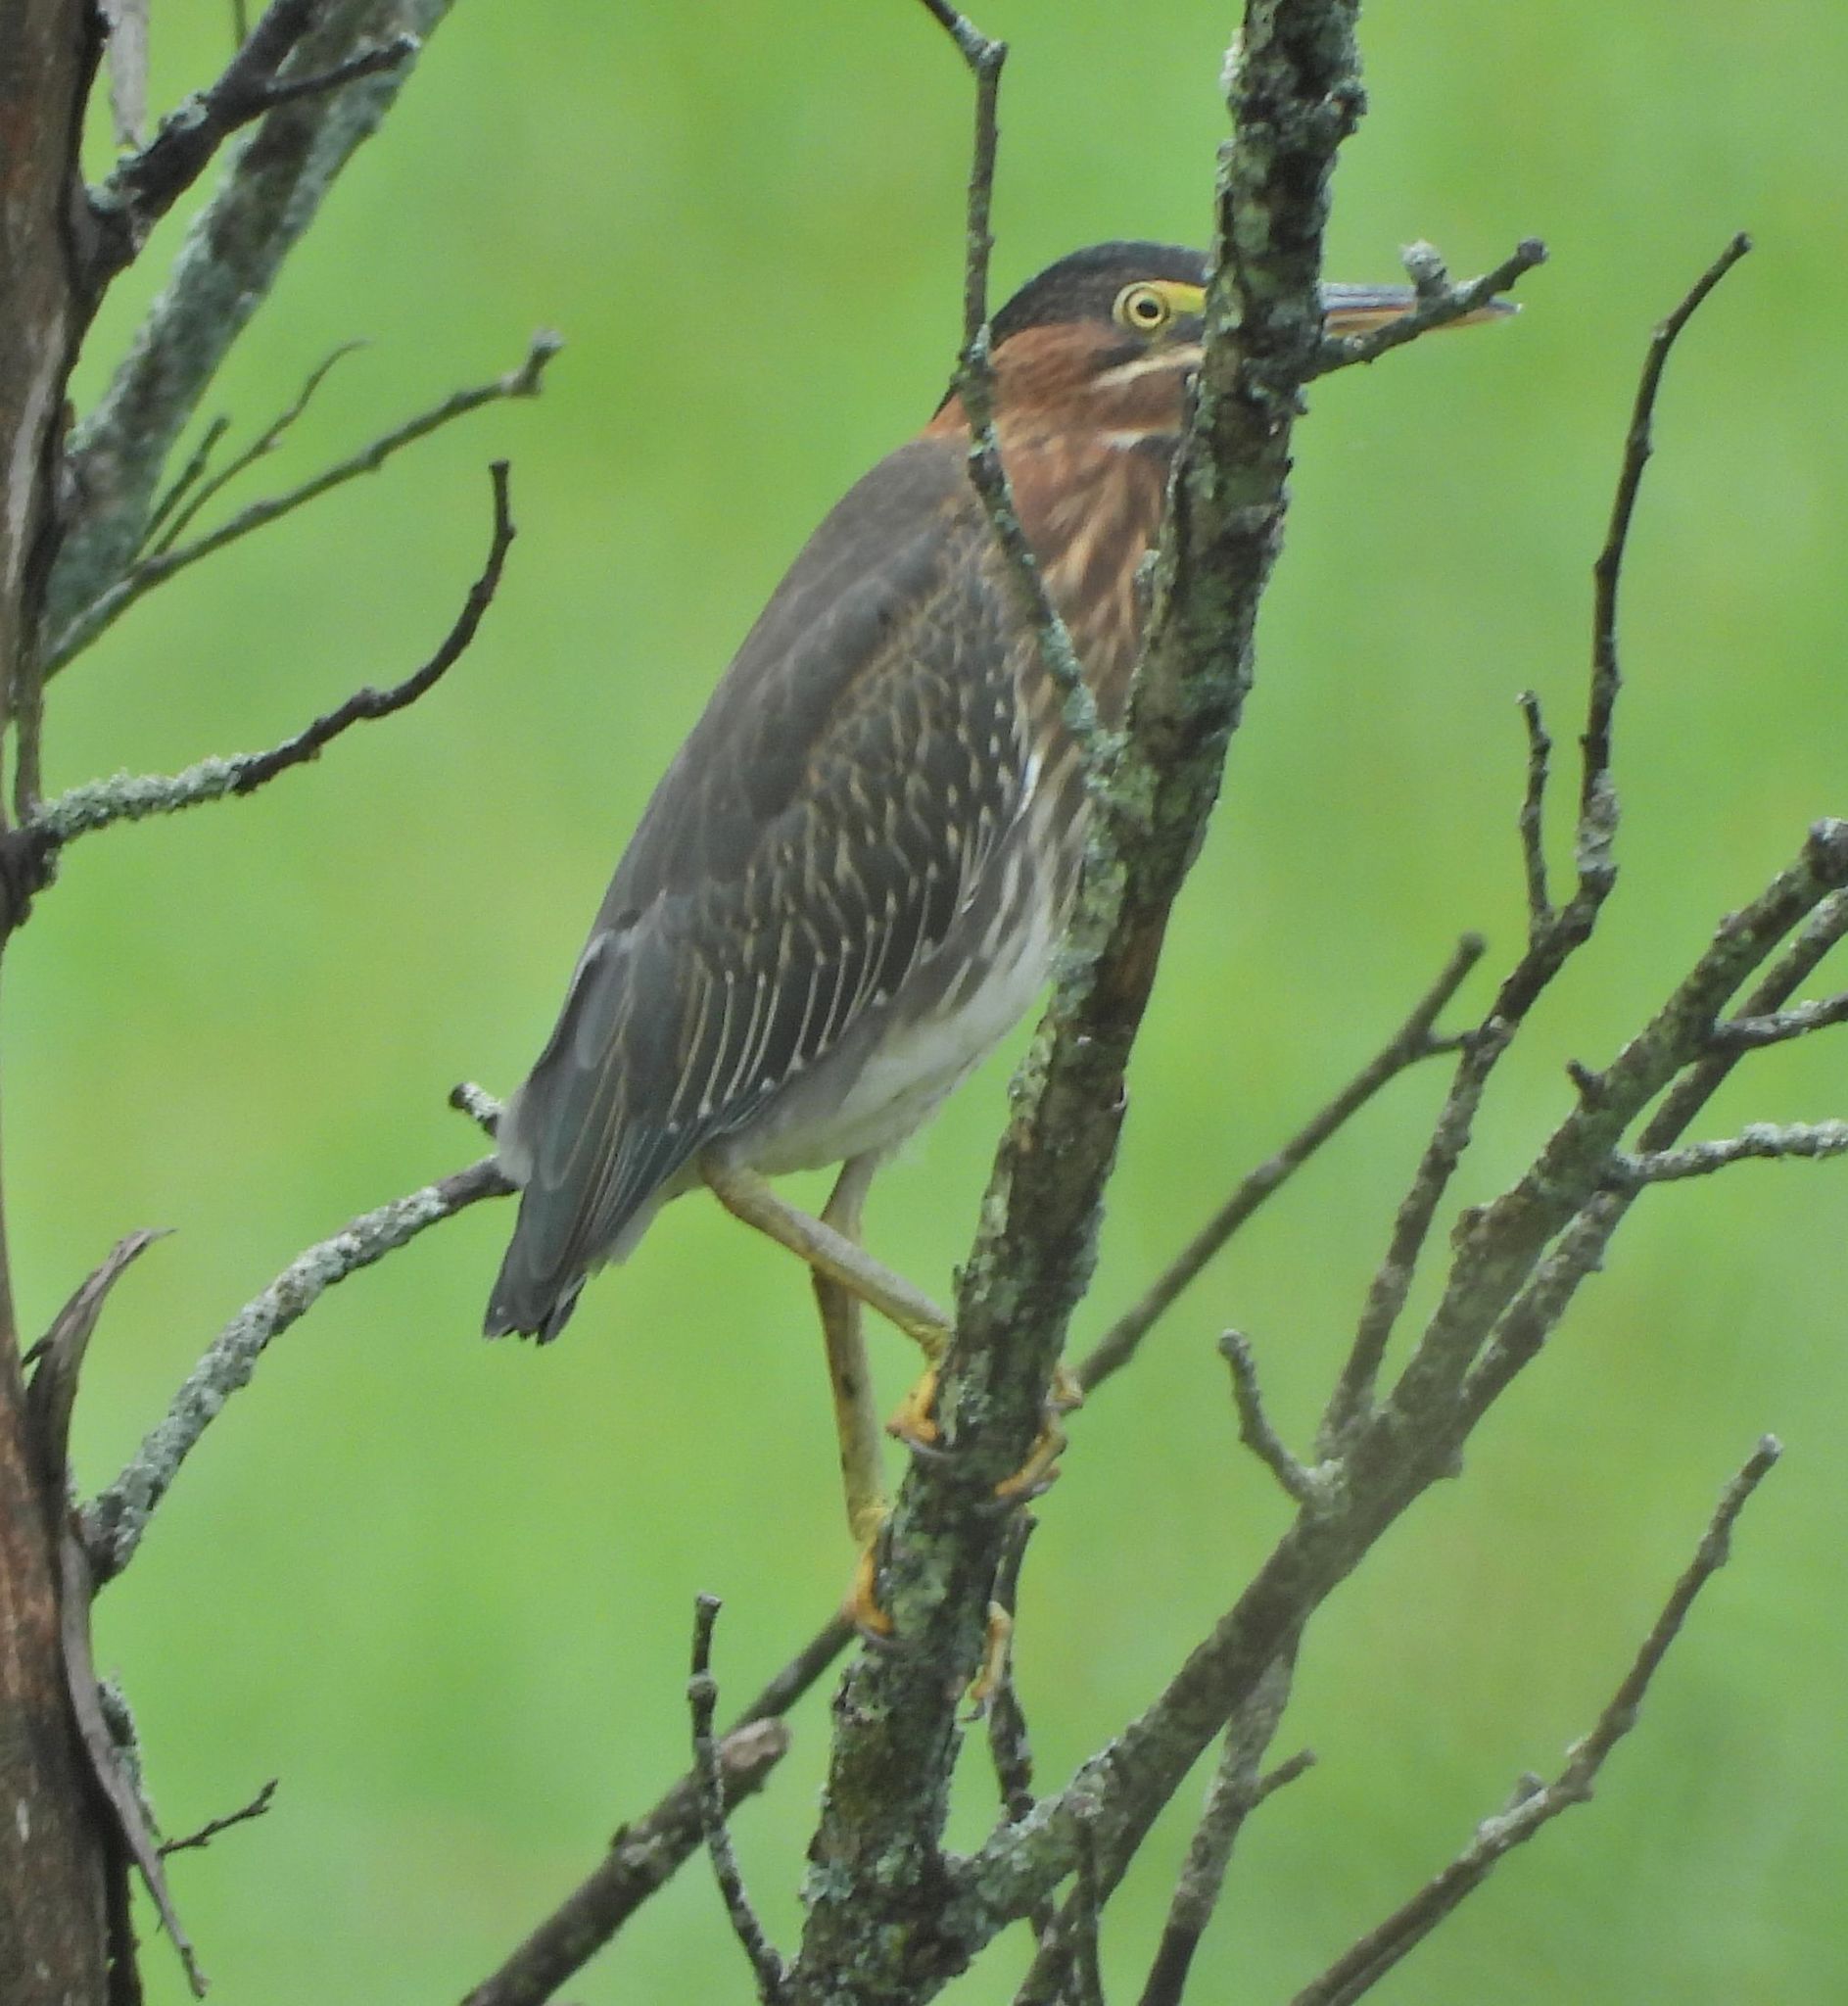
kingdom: Animalia
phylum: Chordata
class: Aves
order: Pelecaniformes
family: Ardeidae
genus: Butorides
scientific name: Butorides virescens
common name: Green heron
